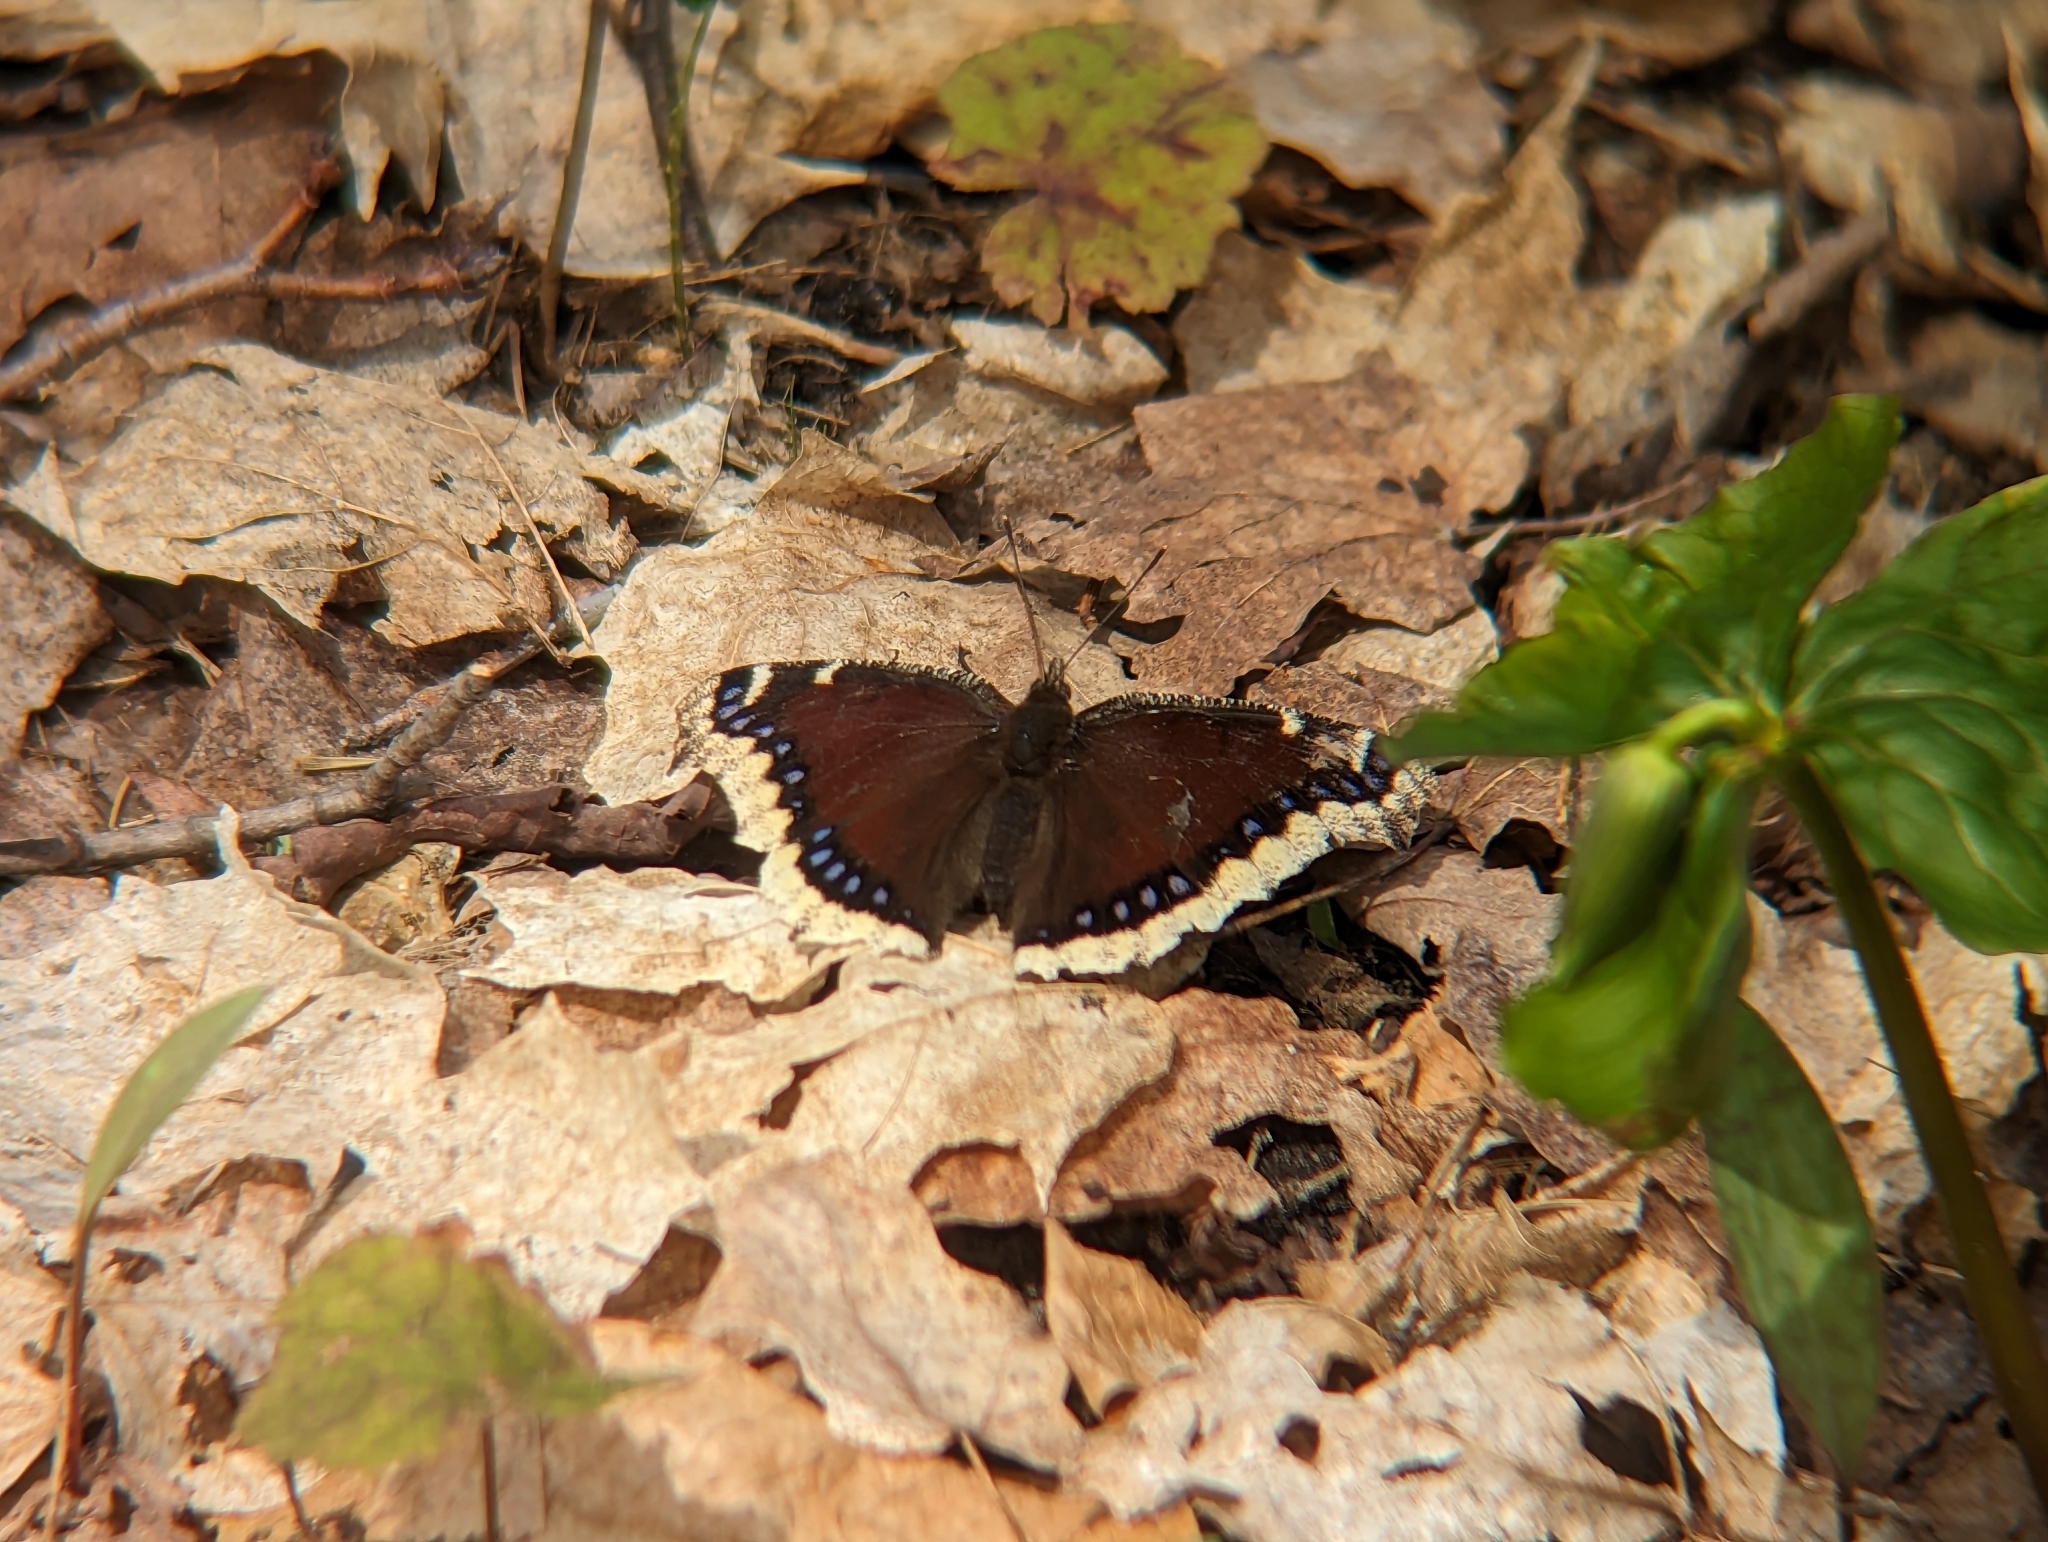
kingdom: Animalia
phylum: Arthropoda
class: Insecta
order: Lepidoptera
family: Nymphalidae
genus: Nymphalis
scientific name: Nymphalis antiopa
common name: Camberwell beauty
